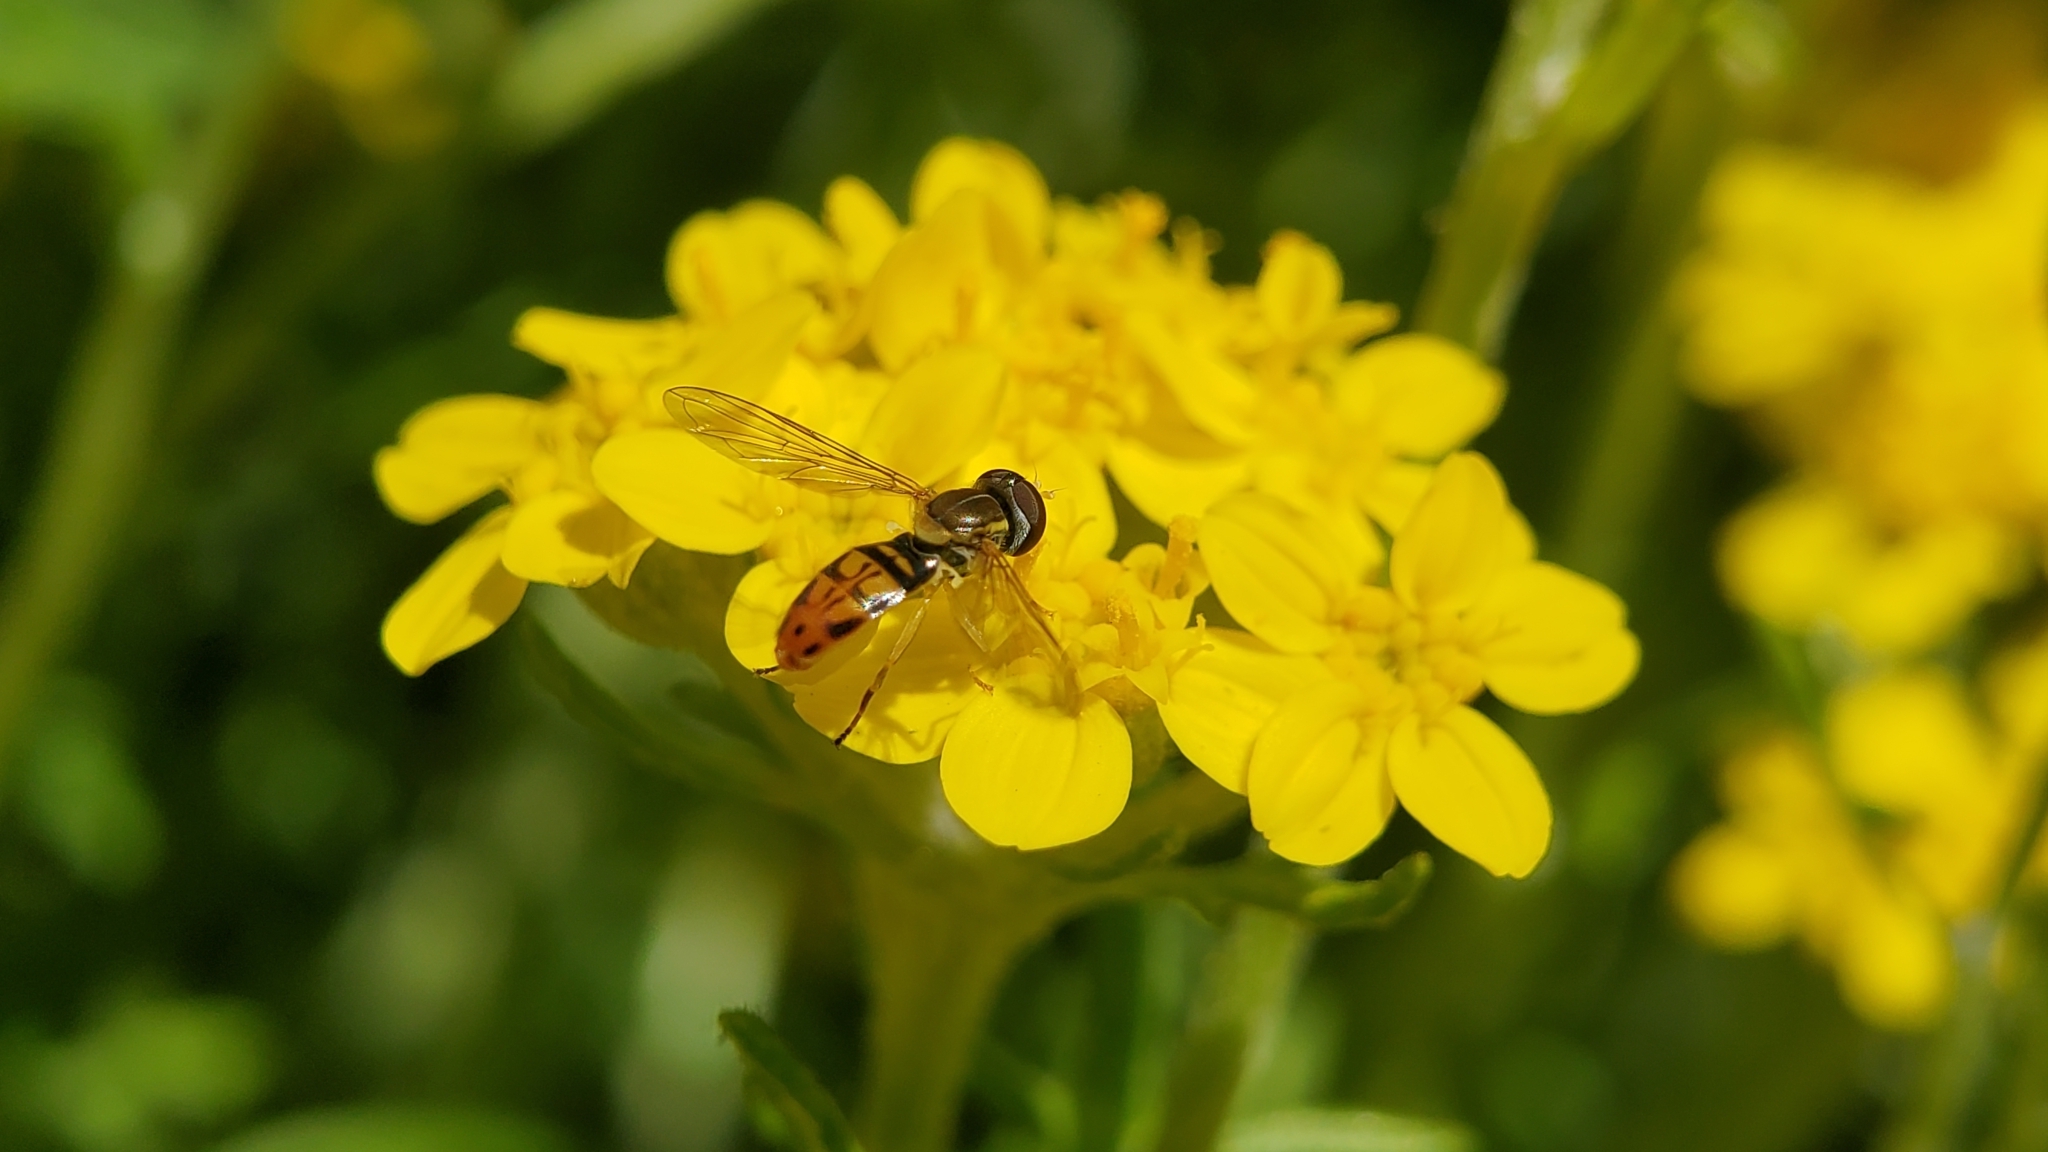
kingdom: Animalia
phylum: Arthropoda
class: Insecta
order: Diptera
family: Syrphidae
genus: Toxomerus
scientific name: Toxomerus marginatus
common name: Syrphid fly
